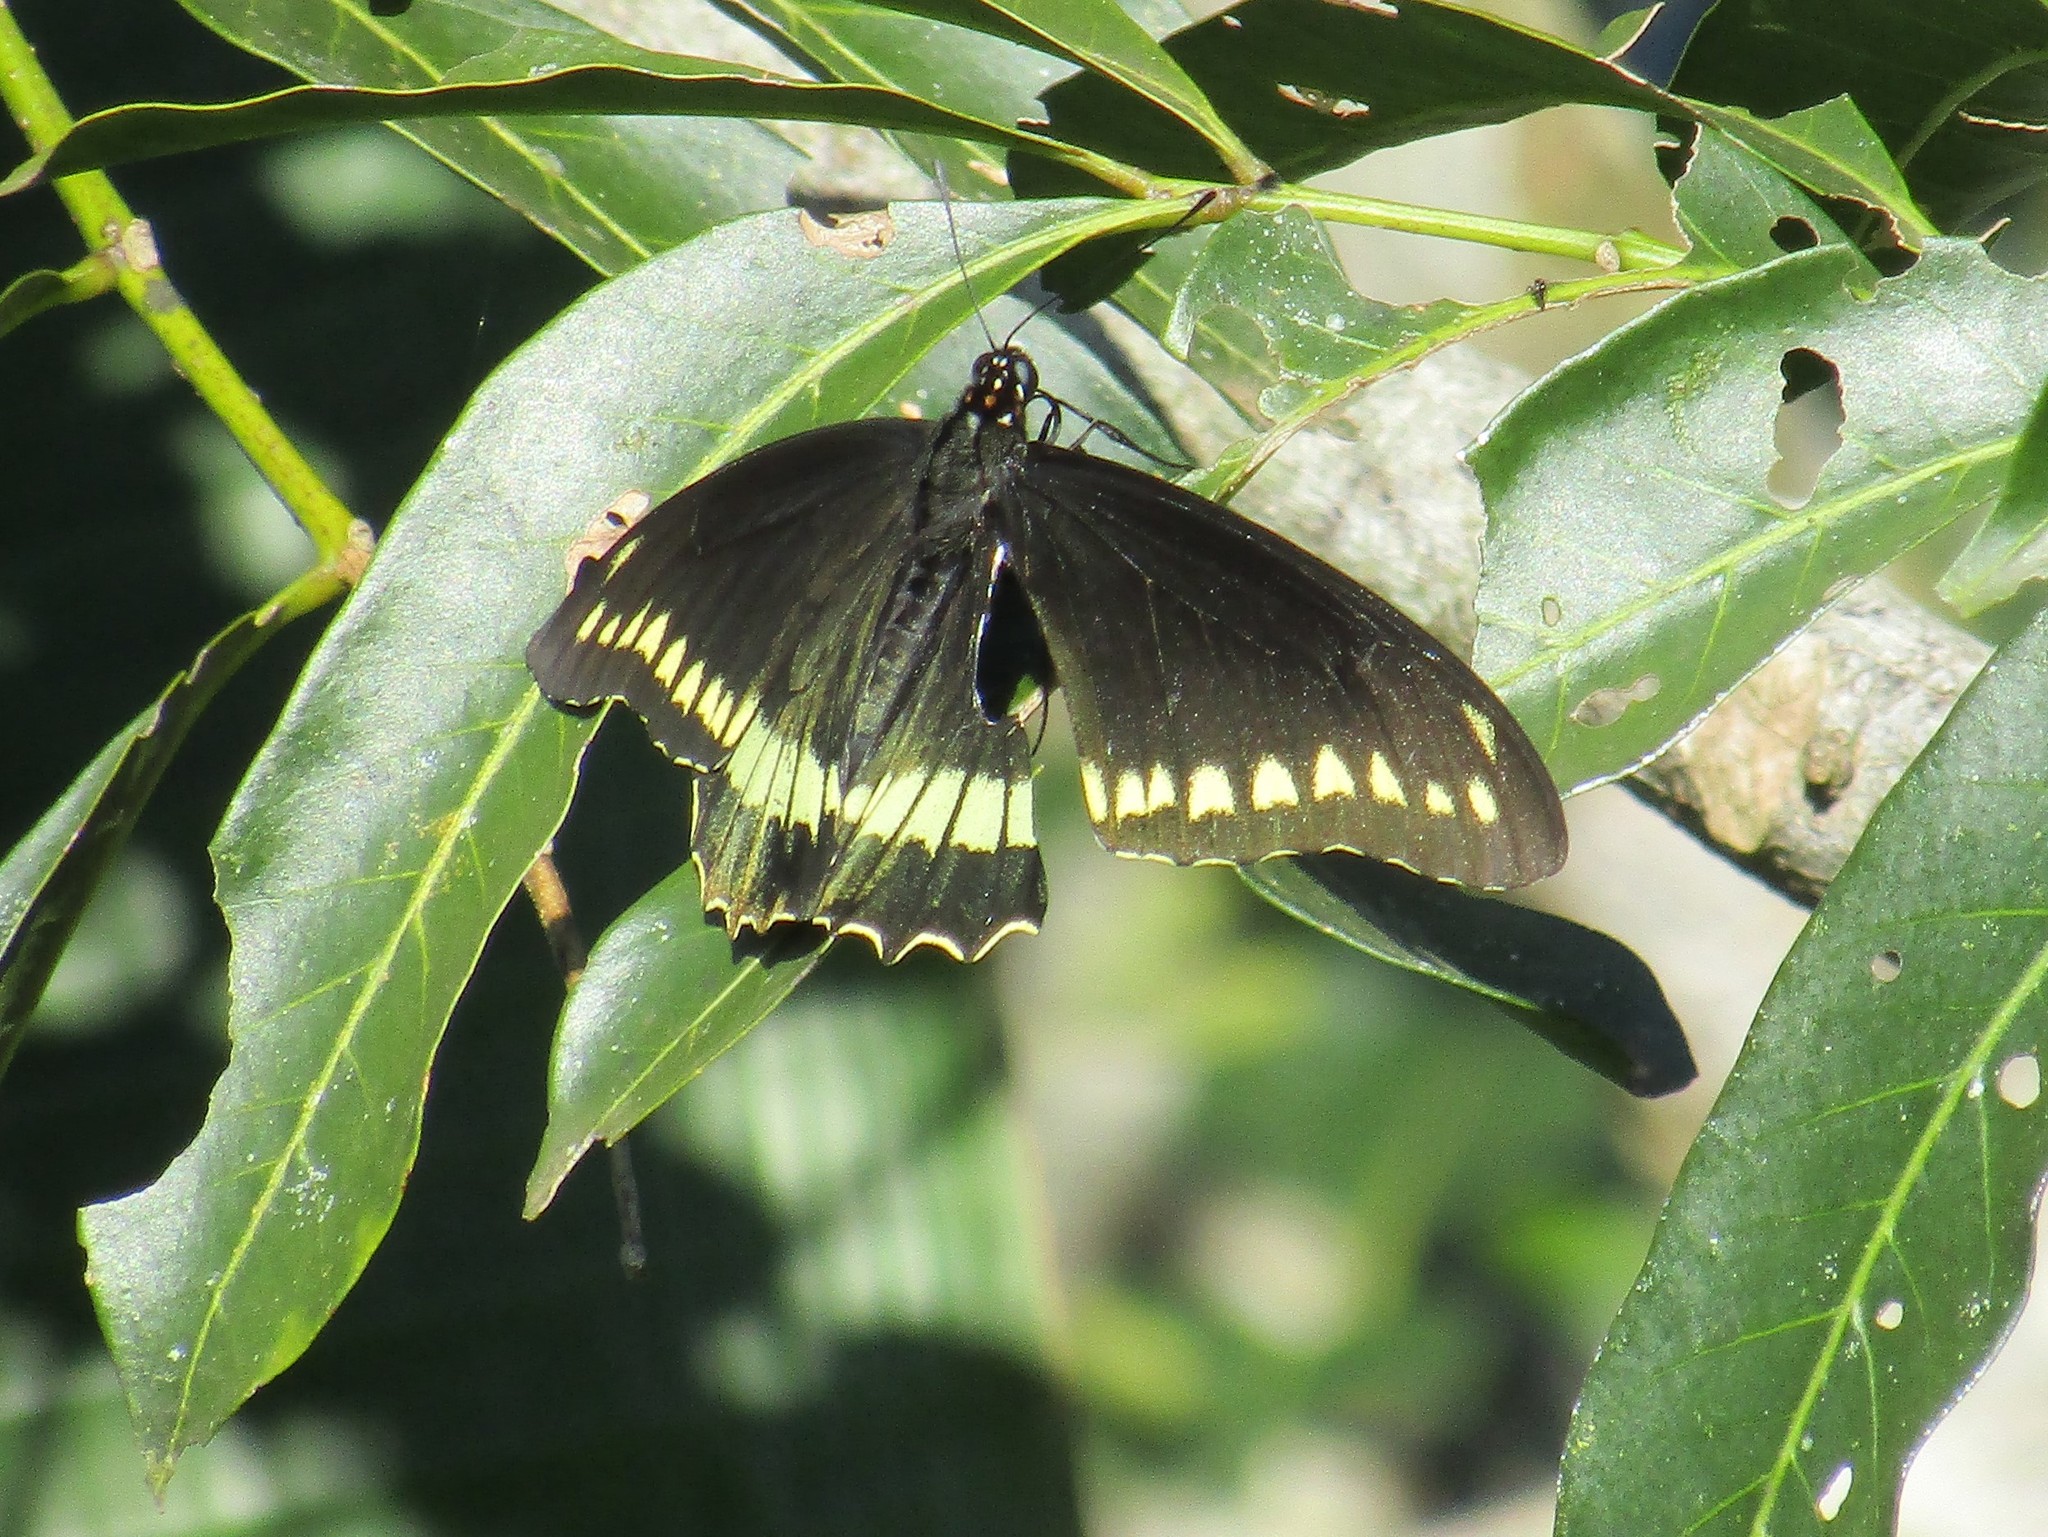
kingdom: Animalia
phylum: Arthropoda
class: Insecta
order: Lepidoptera
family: Papilionidae
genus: Battus
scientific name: Battus polydamas
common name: Polydamas swallowtail
